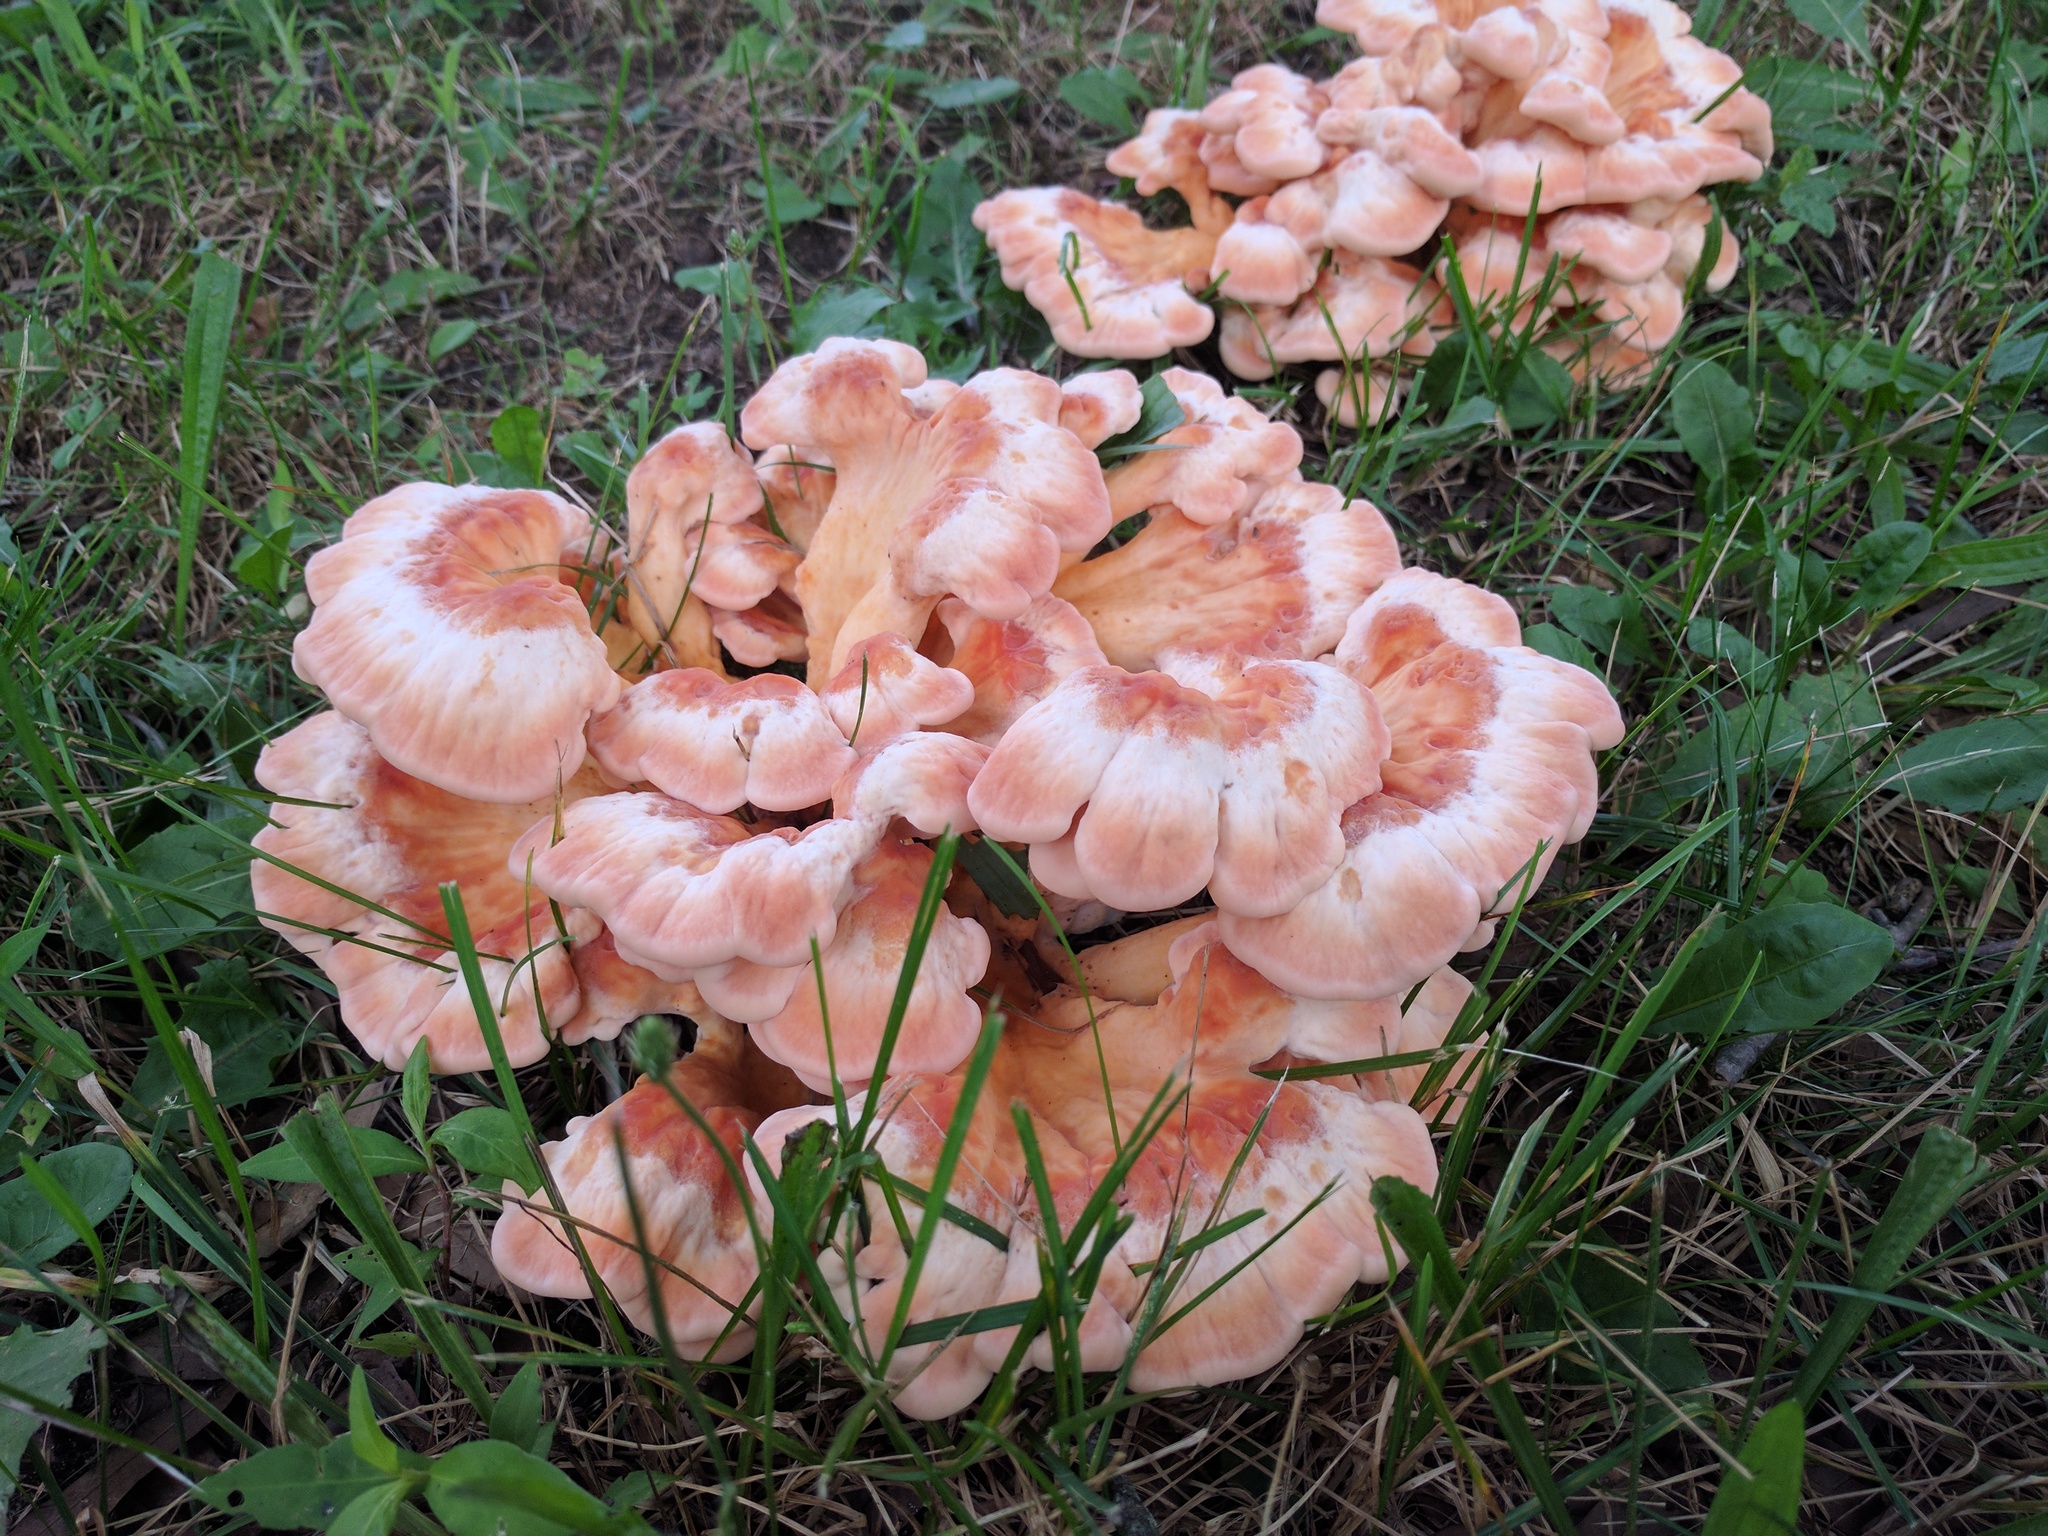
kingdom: Fungi
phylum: Basidiomycota
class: Agaricomycetes
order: Polyporales
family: Laetiporaceae
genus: Laetiporus
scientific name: Laetiporus sulphureus
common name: Chicken of the woods
